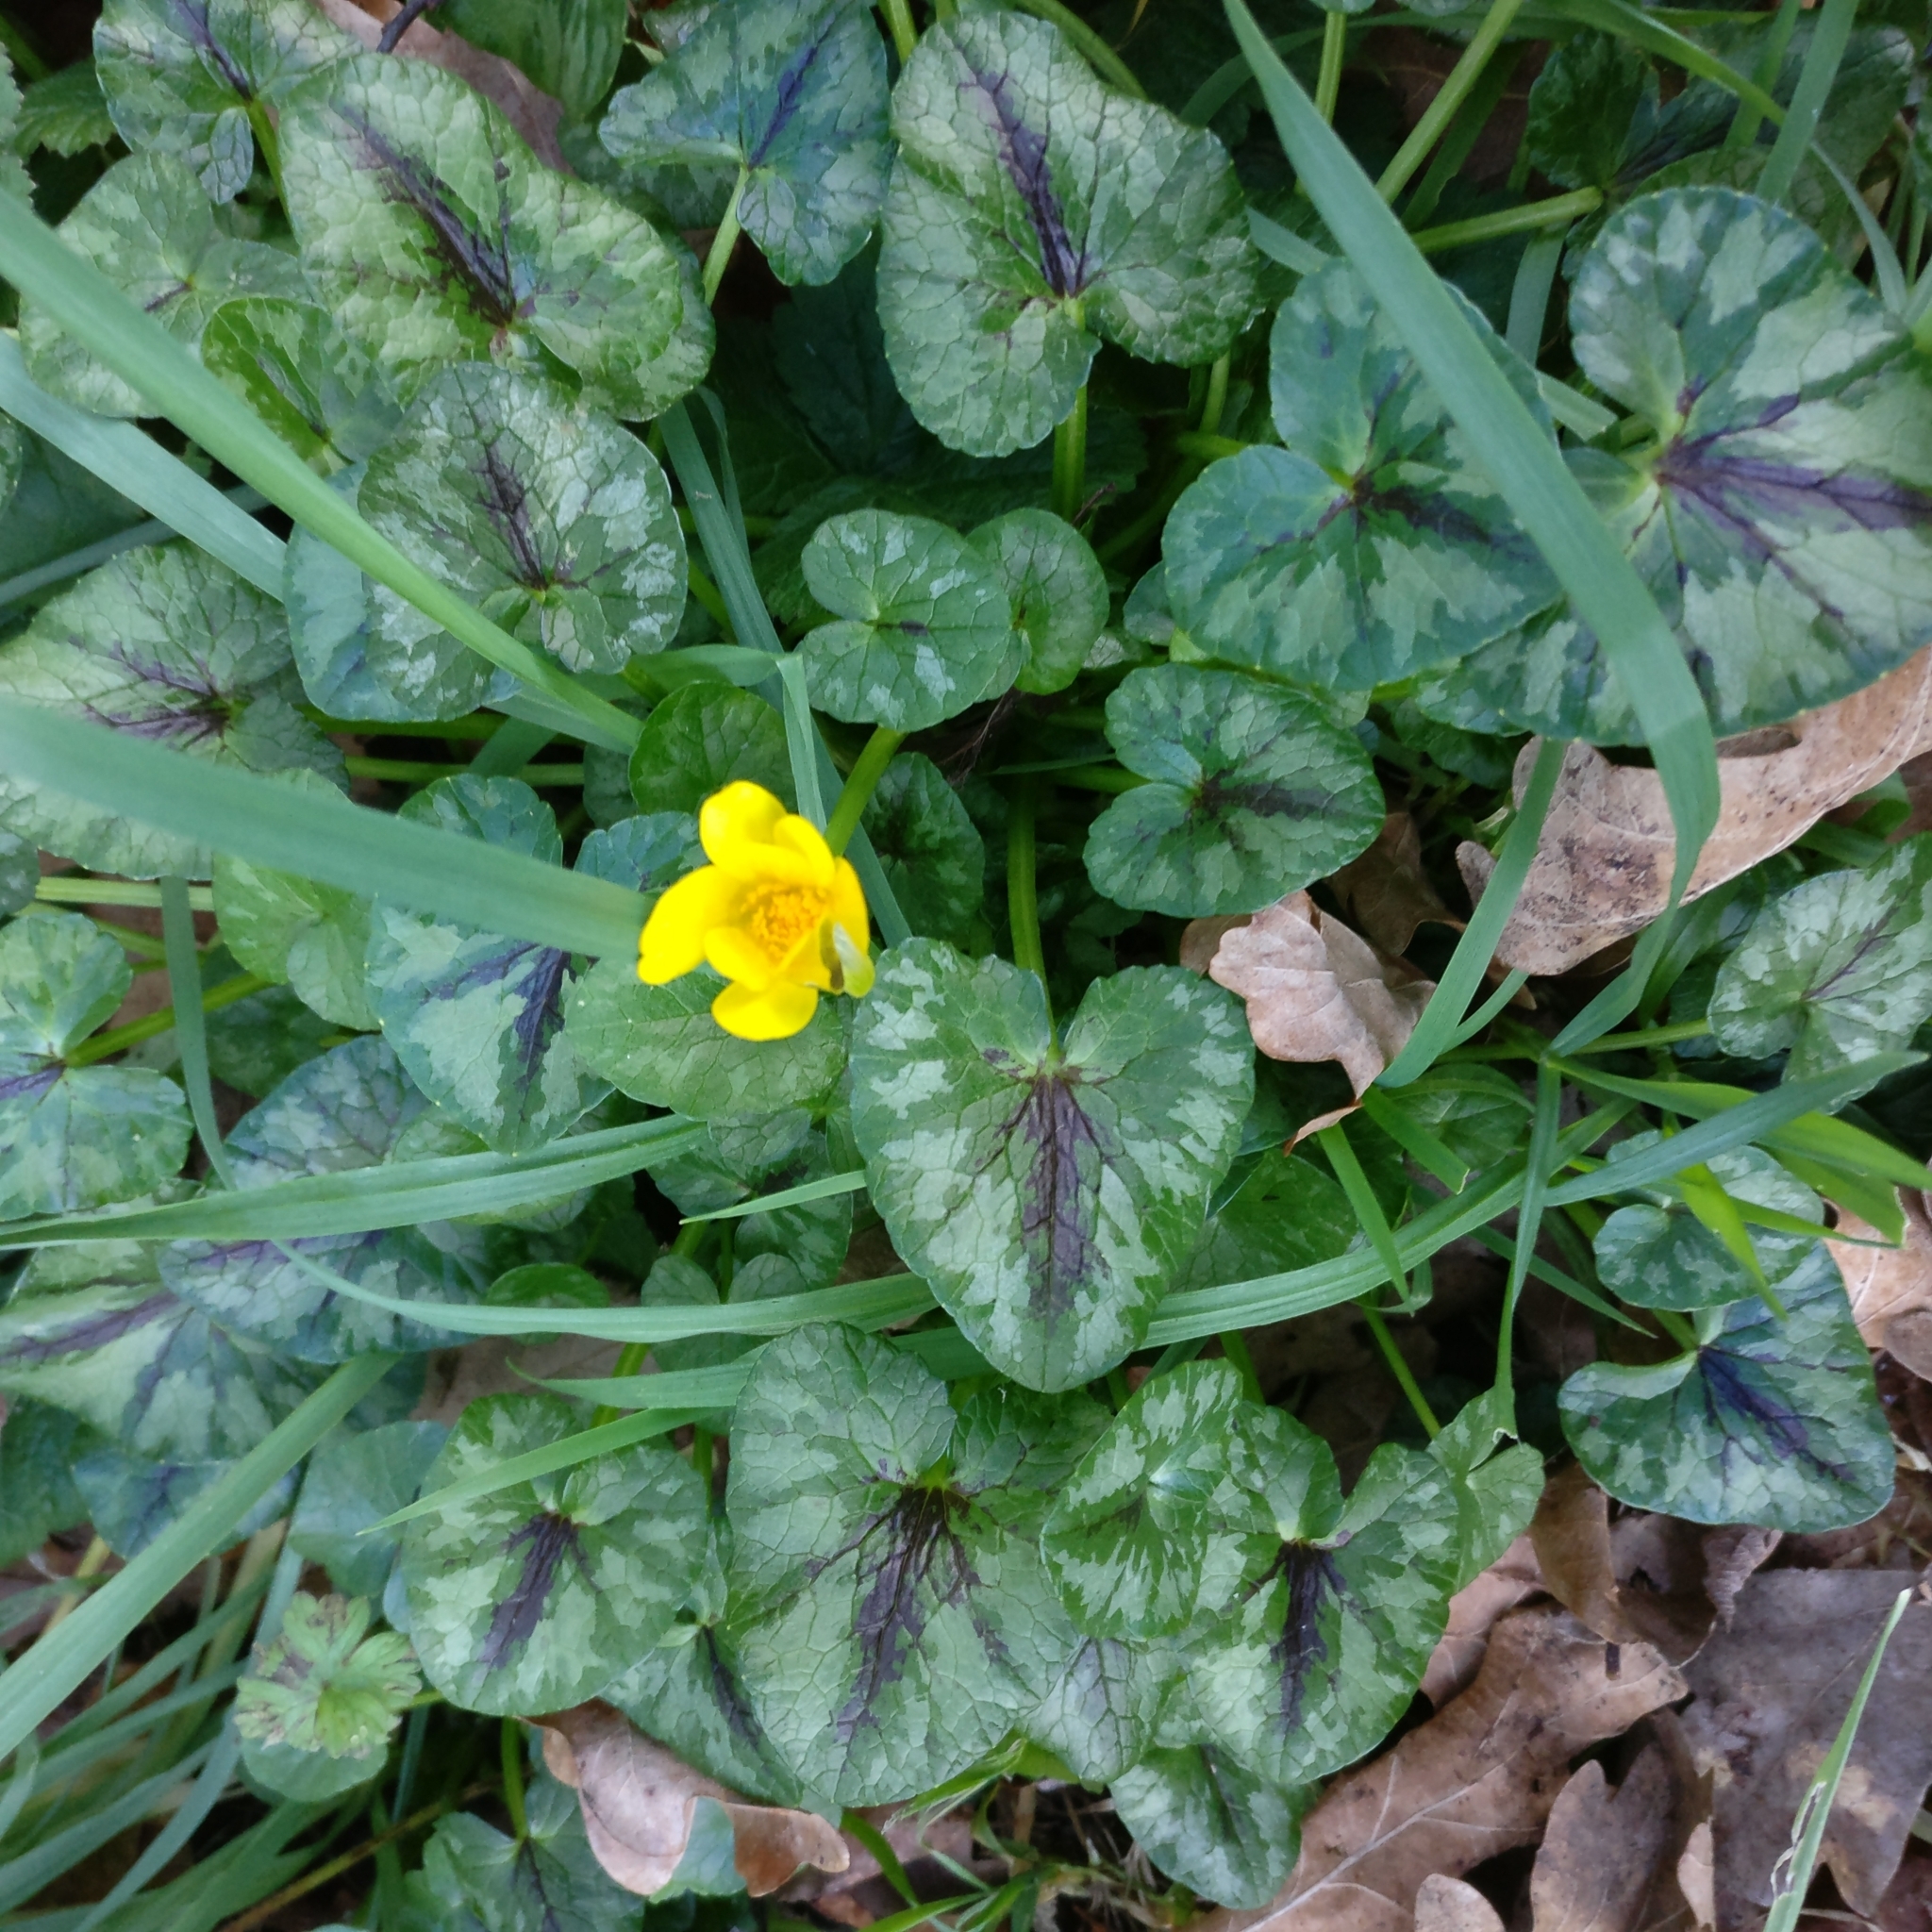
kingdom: Plantae
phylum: Tracheophyta
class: Magnoliopsida
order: Ranunculales
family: Ranunculaceae
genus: Ficaria
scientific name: Ficaria verna
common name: Lesser celandine
